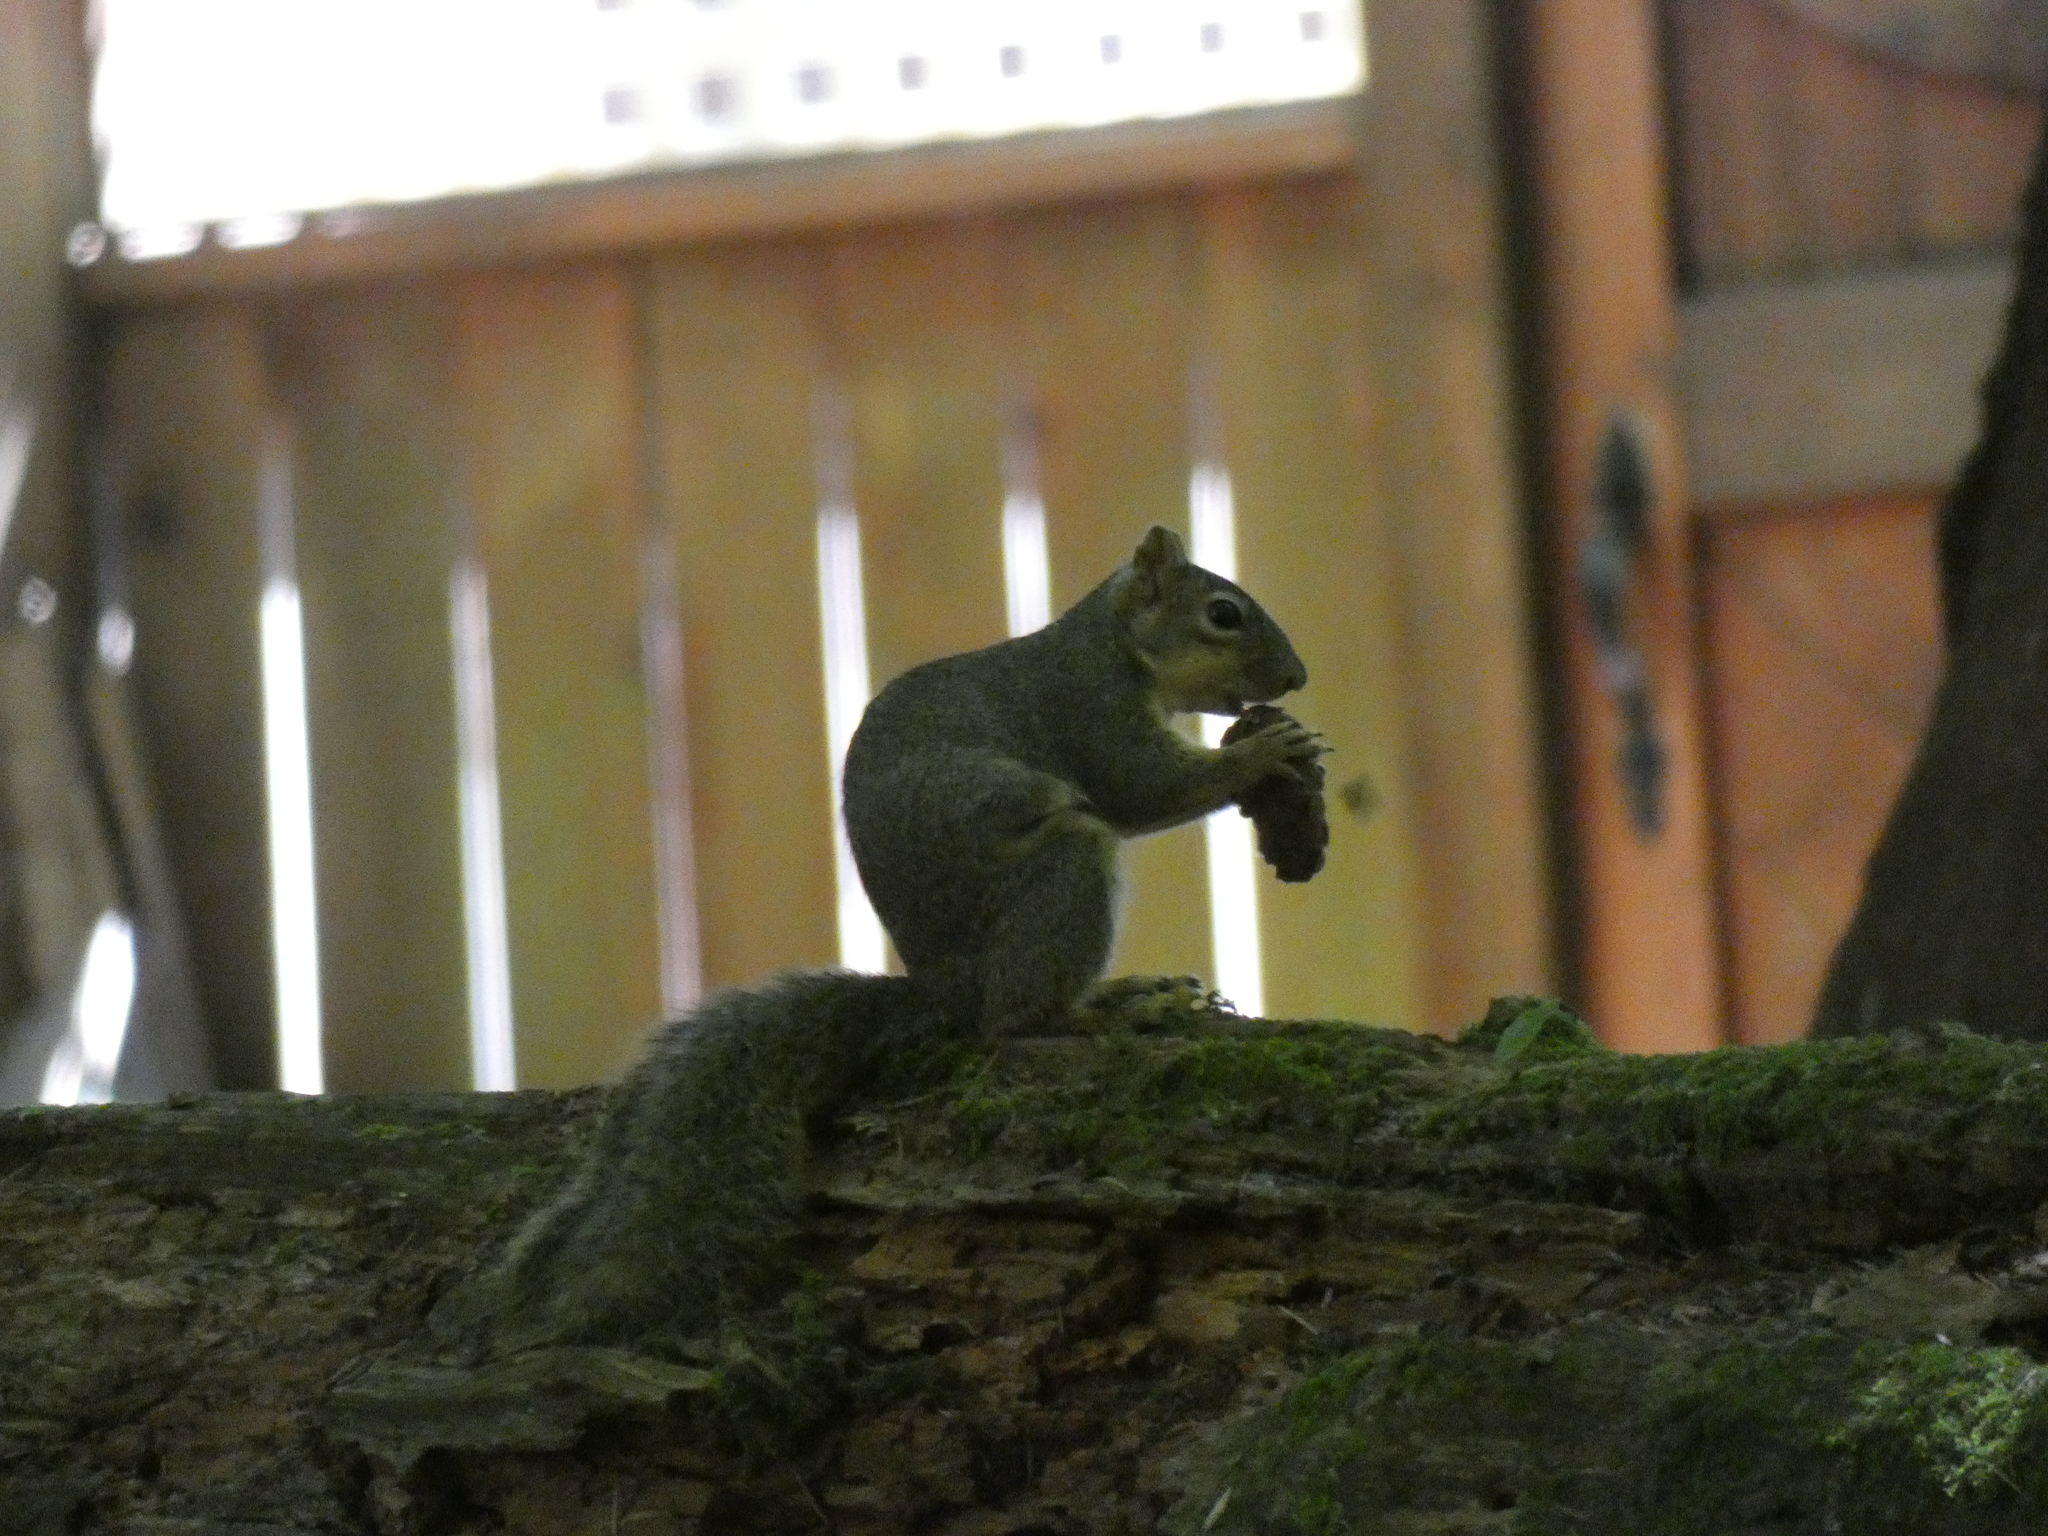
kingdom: Animalia
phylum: Chordata
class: Mammalia
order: Rodentia
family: Sciuridae
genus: Sciurus
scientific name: Sciurus carolinensis
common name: Eastern gray squirrel
